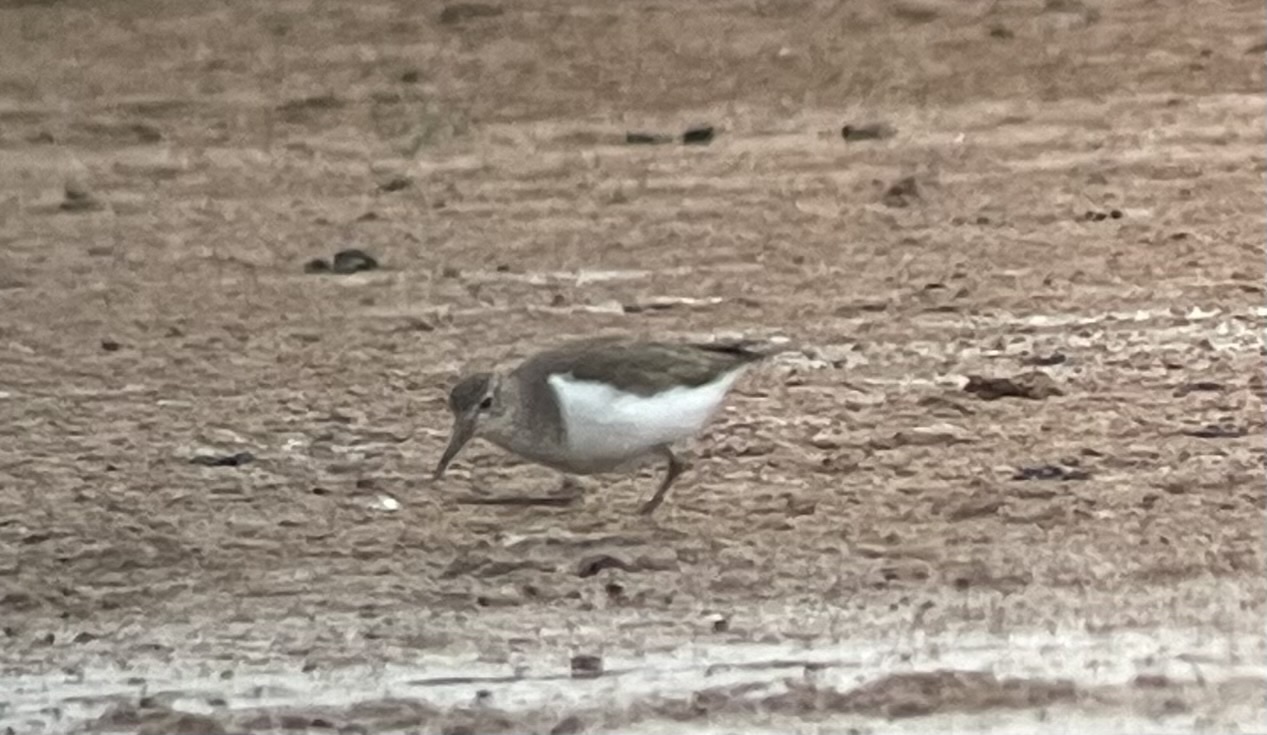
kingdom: Animalia
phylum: Chordata
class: Aves
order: Charadriiformes
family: Scolopacidae
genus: Actitis
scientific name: Actitis hypoleucos
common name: Common sandpiper
